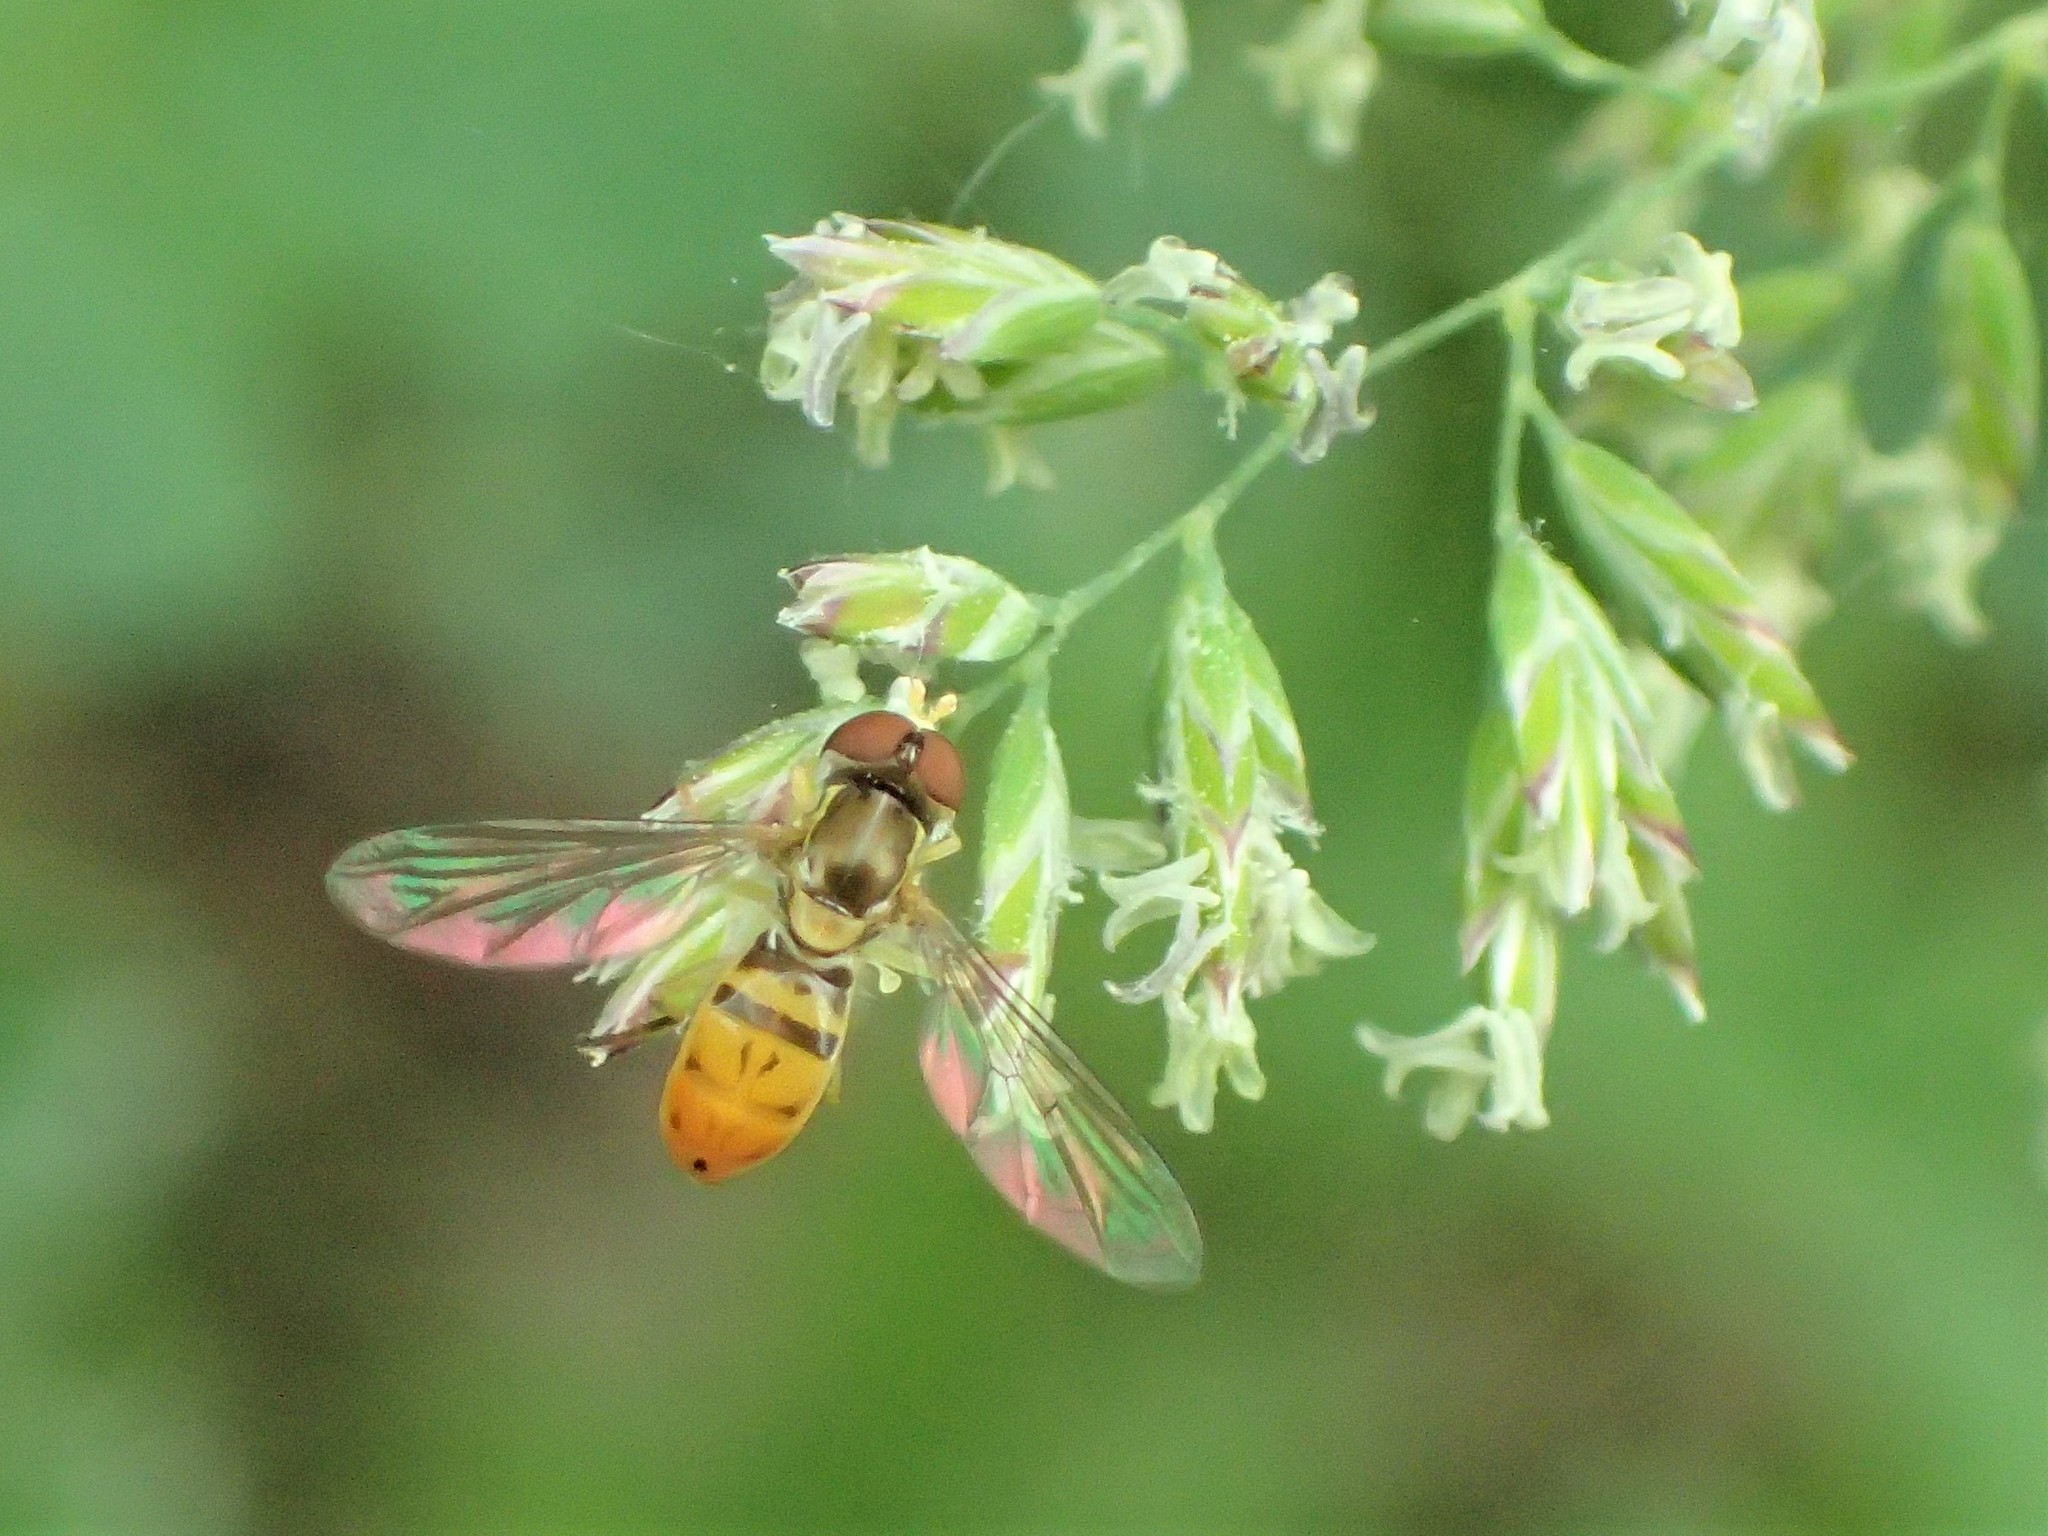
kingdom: Animalia
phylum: Arthropoda
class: Insecta
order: Diptera
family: Syrphidae
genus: Toxomerus
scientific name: Toxomerus marginatus
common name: Syrphid fly
